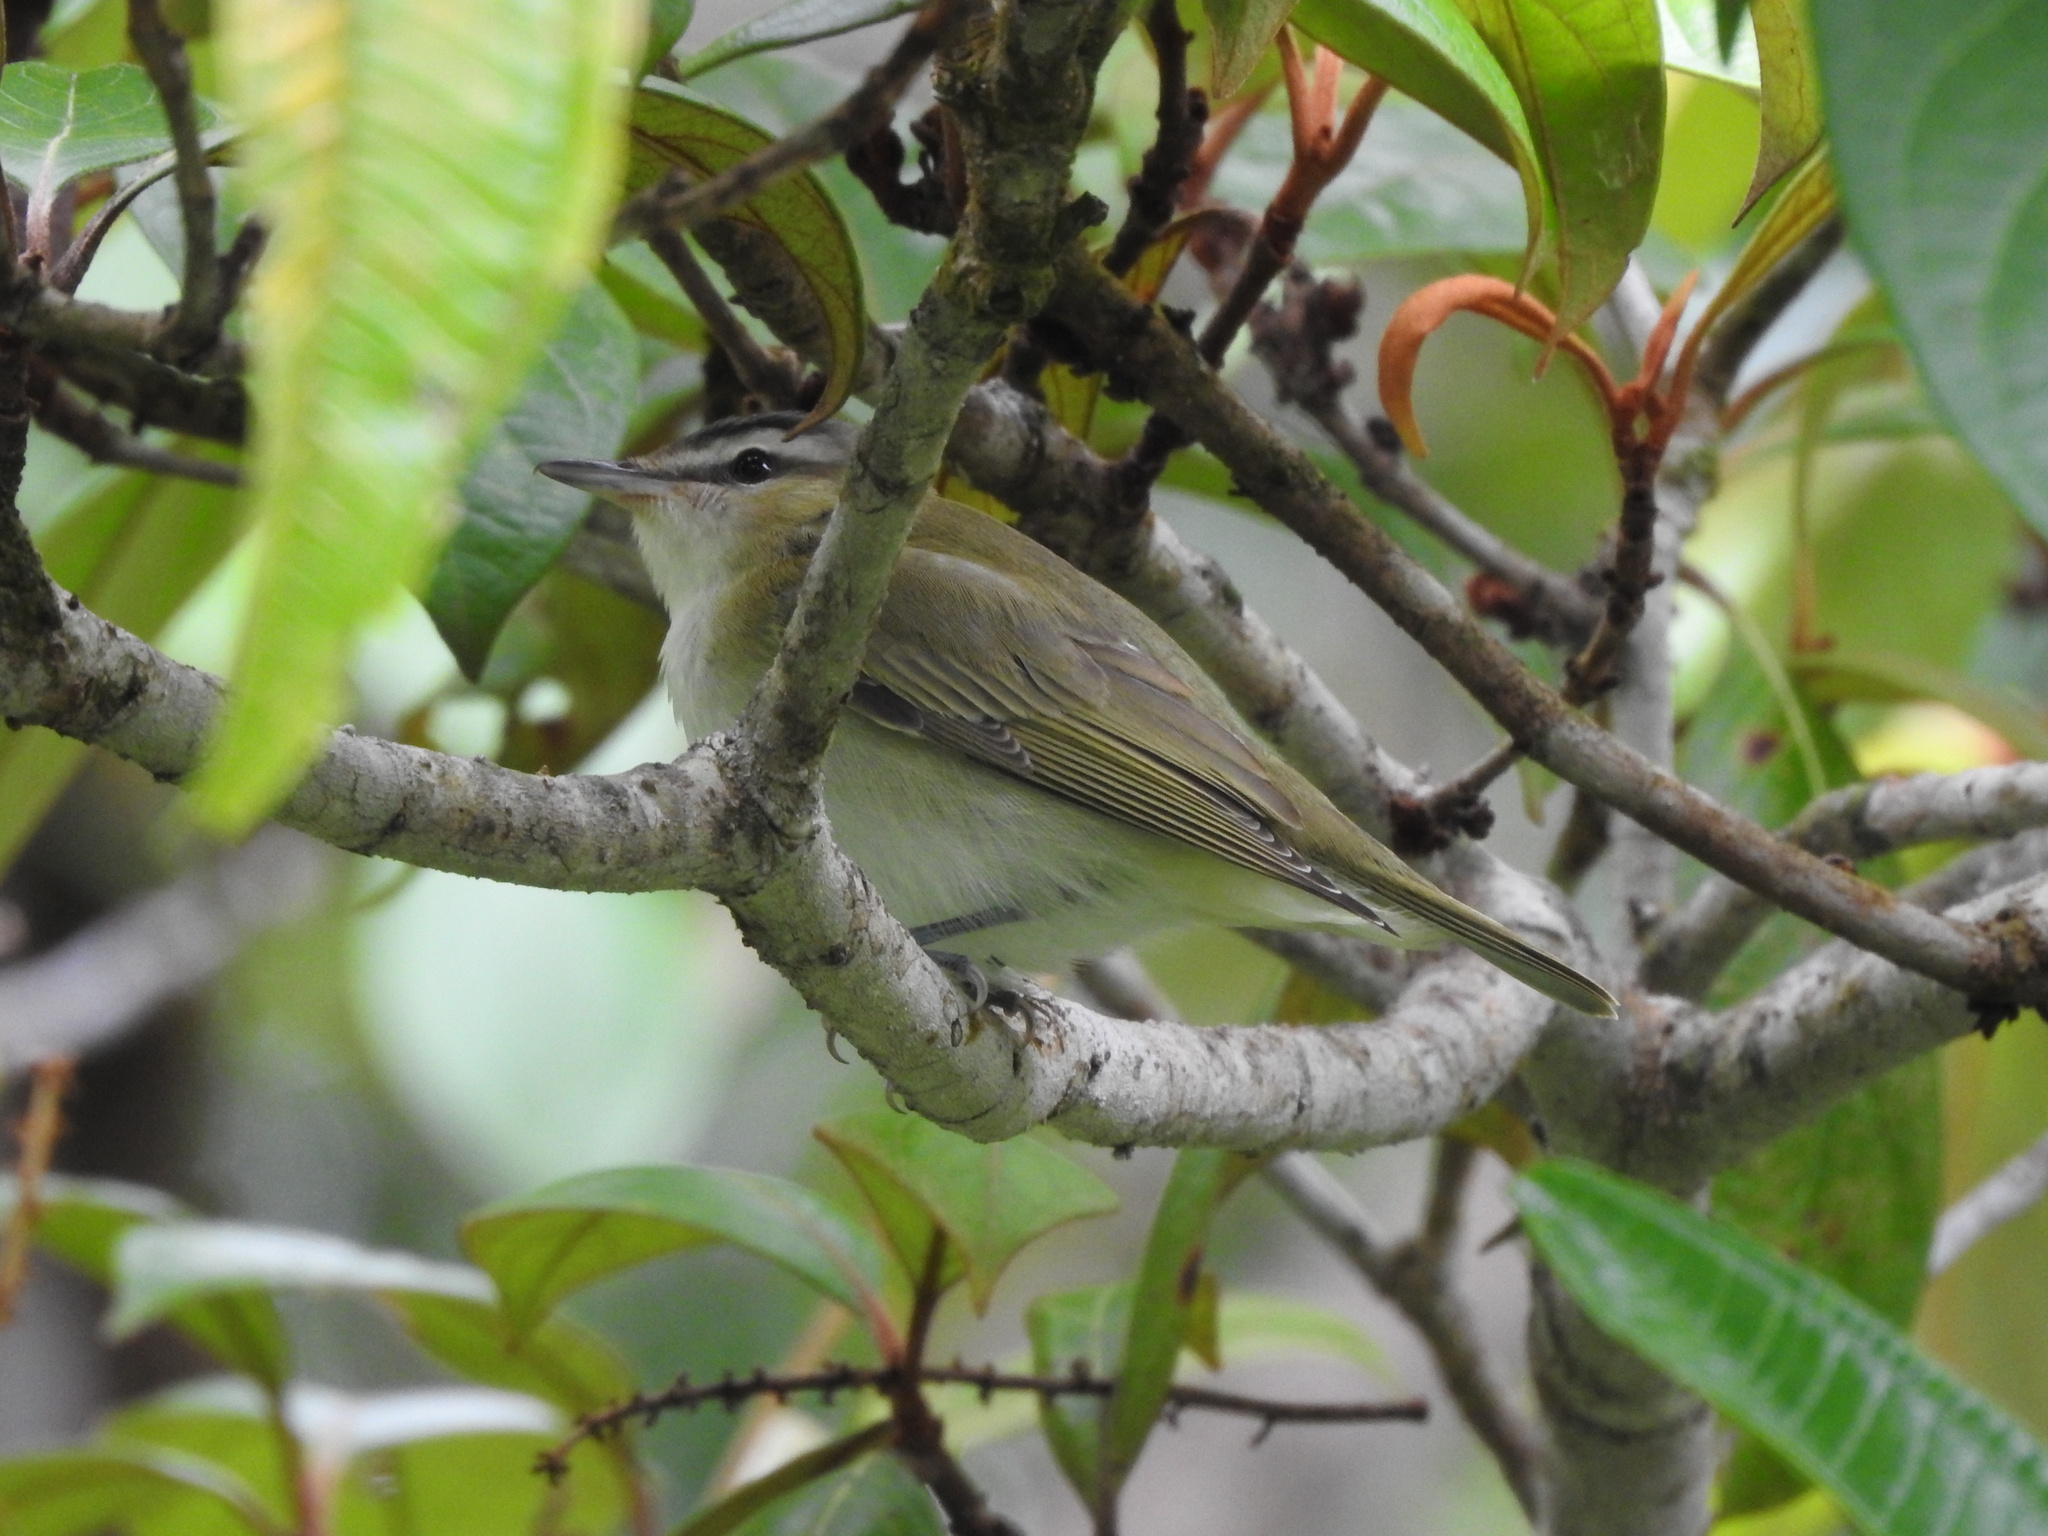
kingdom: Animalia
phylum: Chordata
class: Aves
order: Passeriformes
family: Vireonidae
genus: Vireo
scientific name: Vireo olivaceus
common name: Red-eyed vireo
